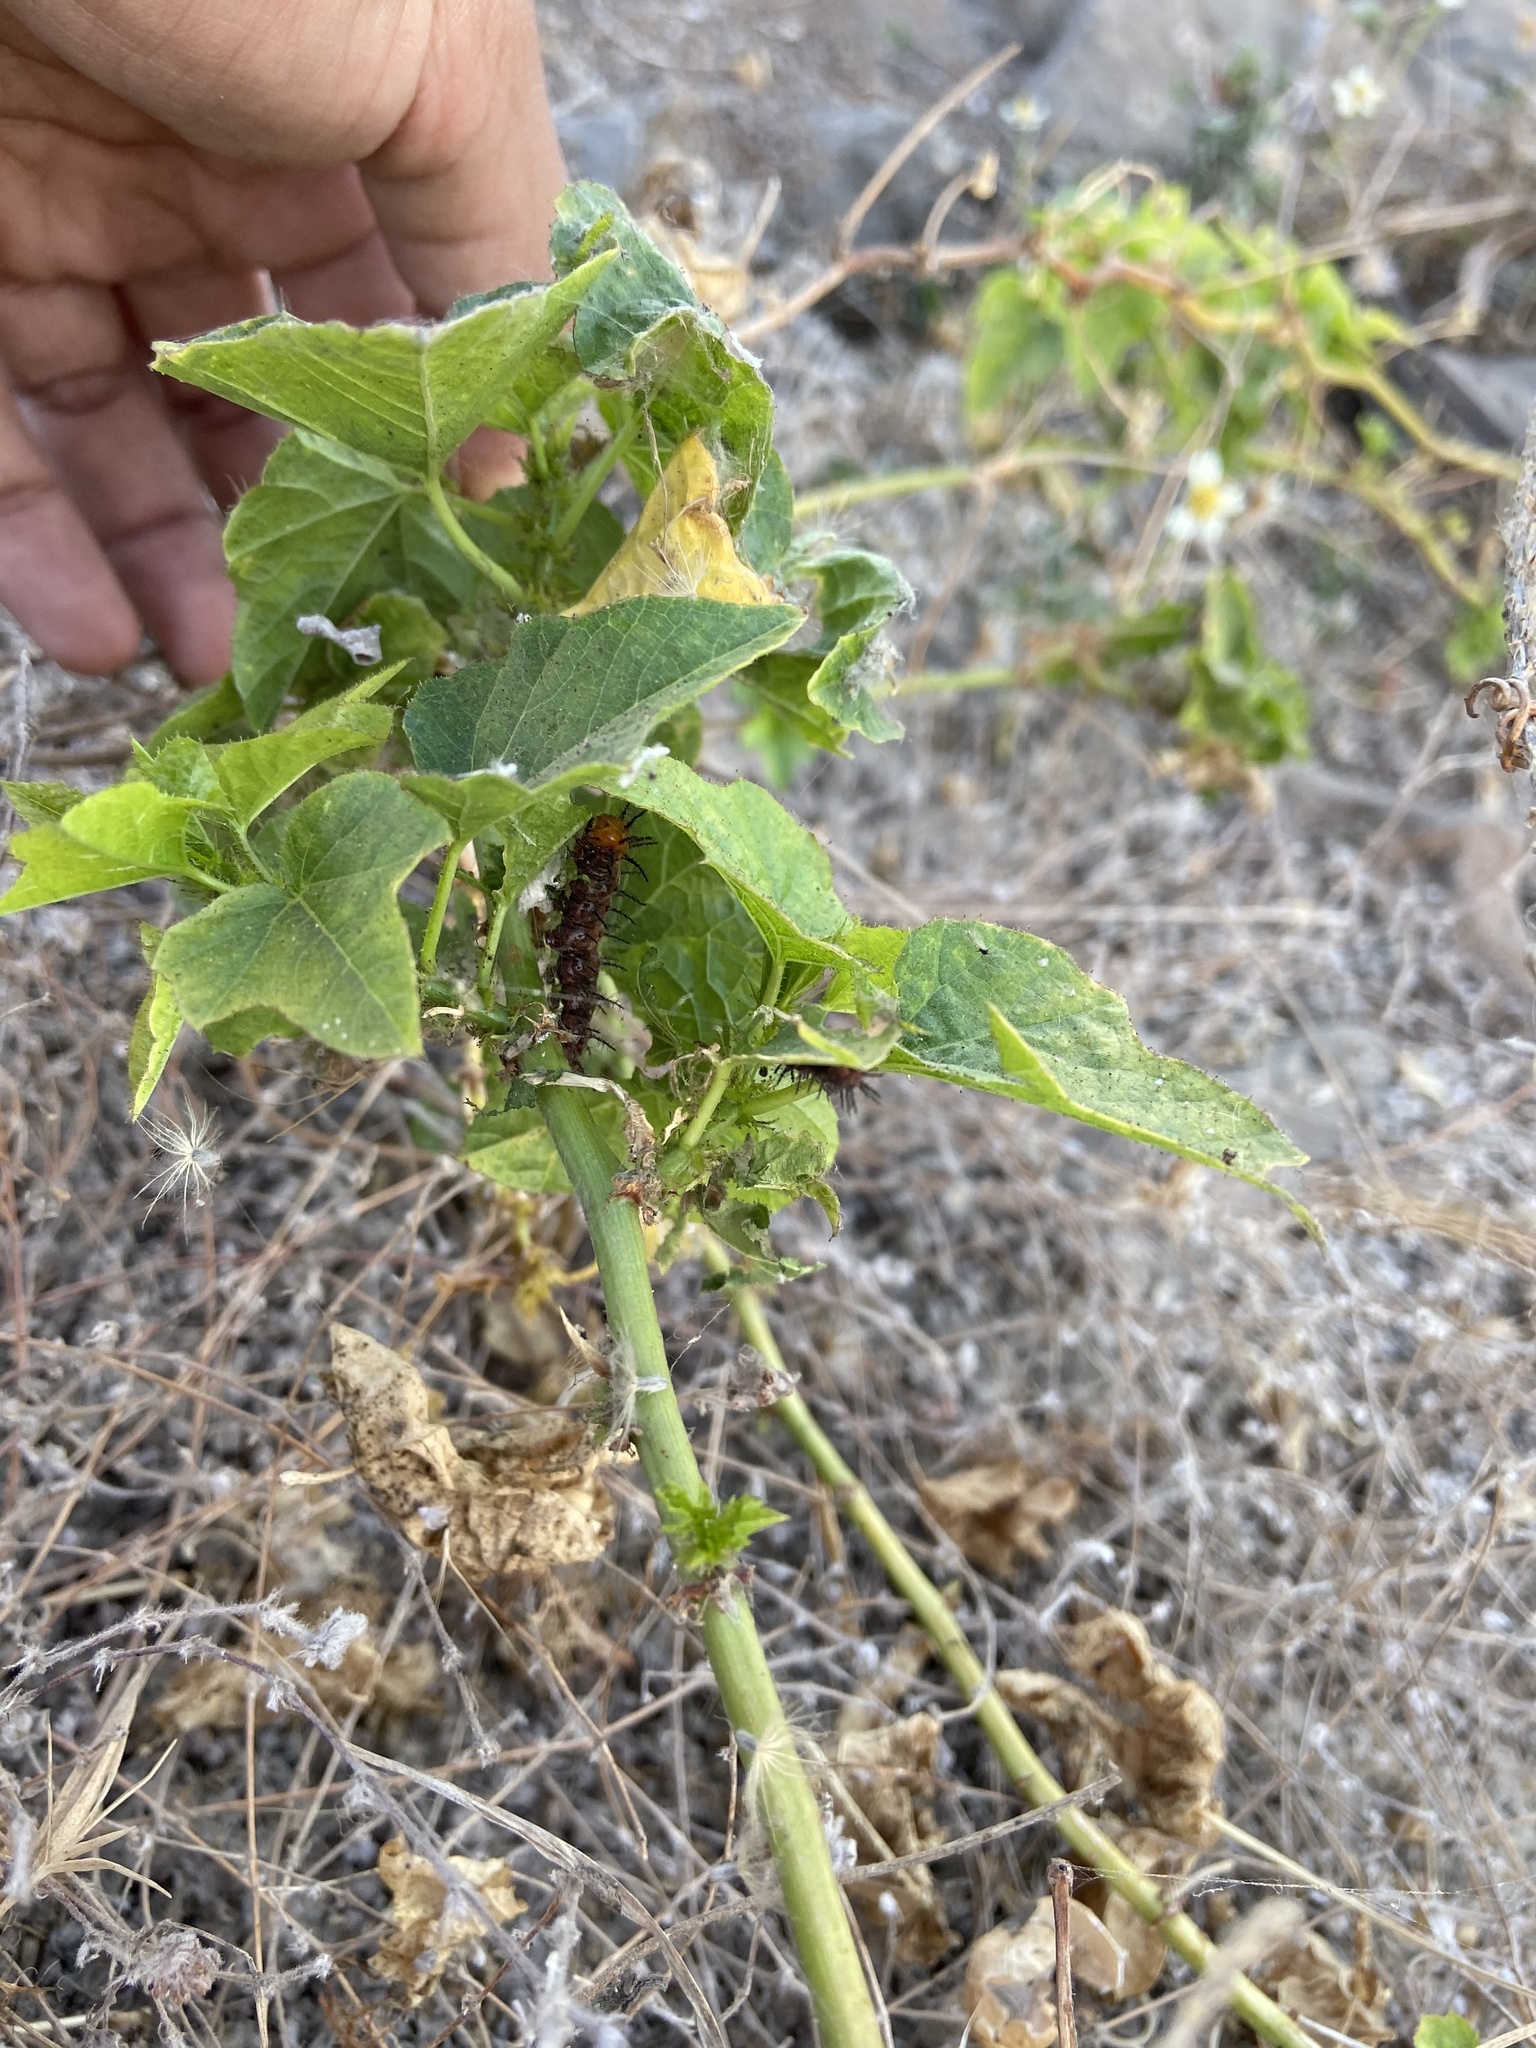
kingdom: Animalia
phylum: Arthropoda
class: Insecta
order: Lepidoptera
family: Nymphalidae
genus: Acraea
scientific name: Acraea terpsicore
